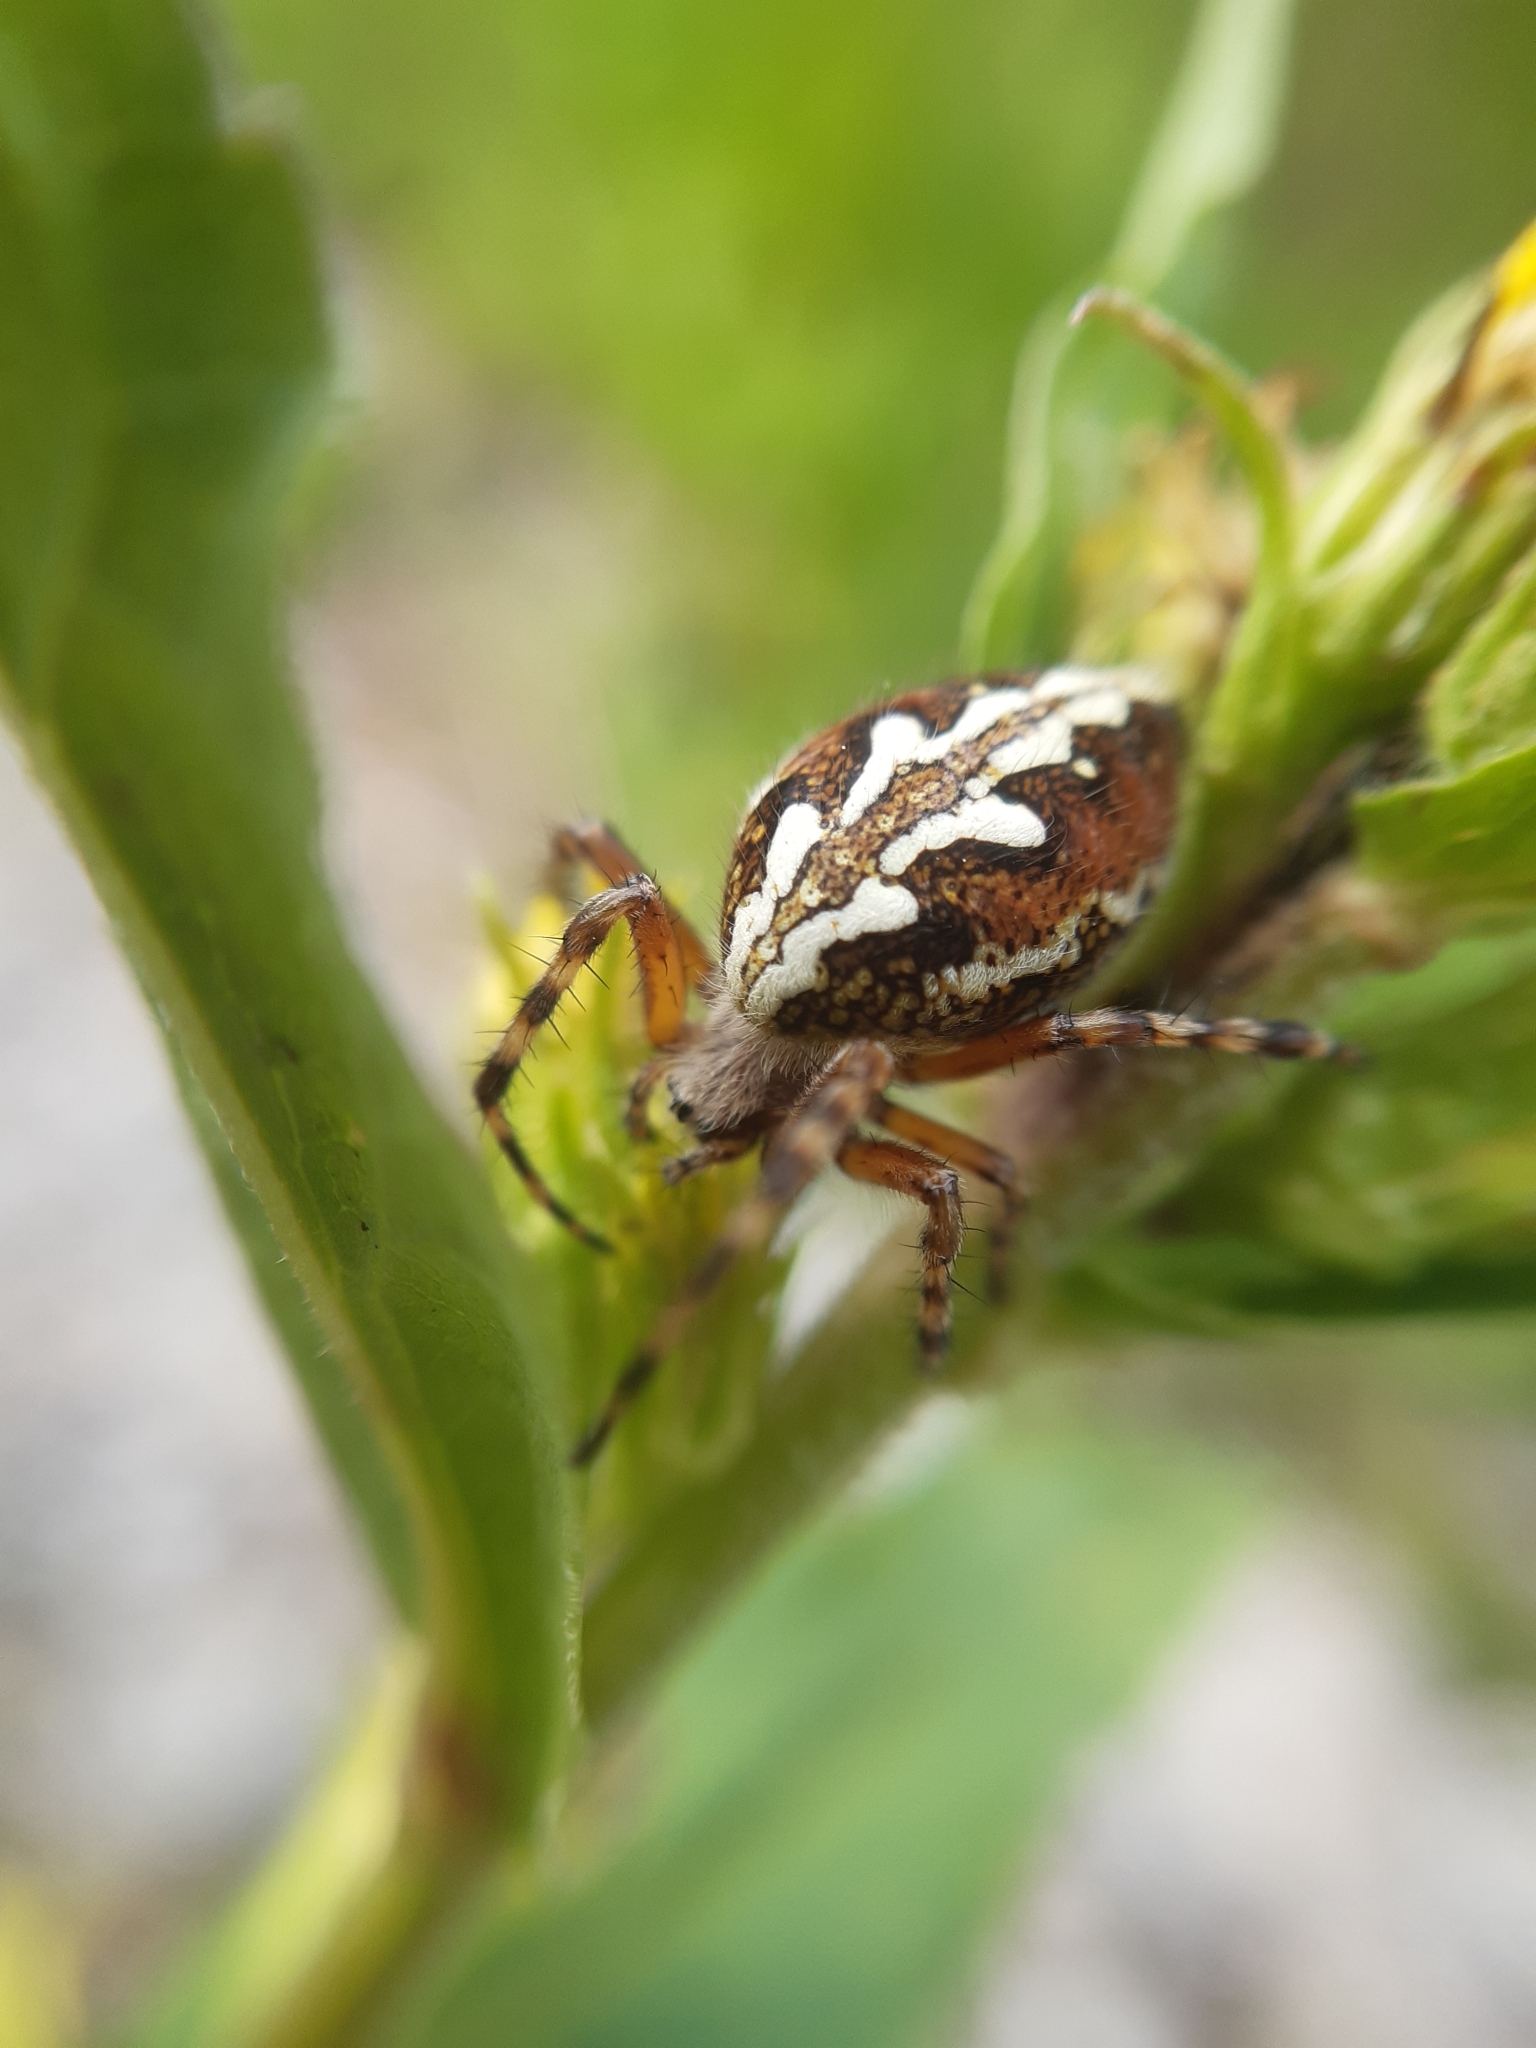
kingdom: Animalia
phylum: Arthropoda
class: Arachnida
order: Araneae
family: Araneidae
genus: Aculepeira
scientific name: Aculepeira ceropegia
